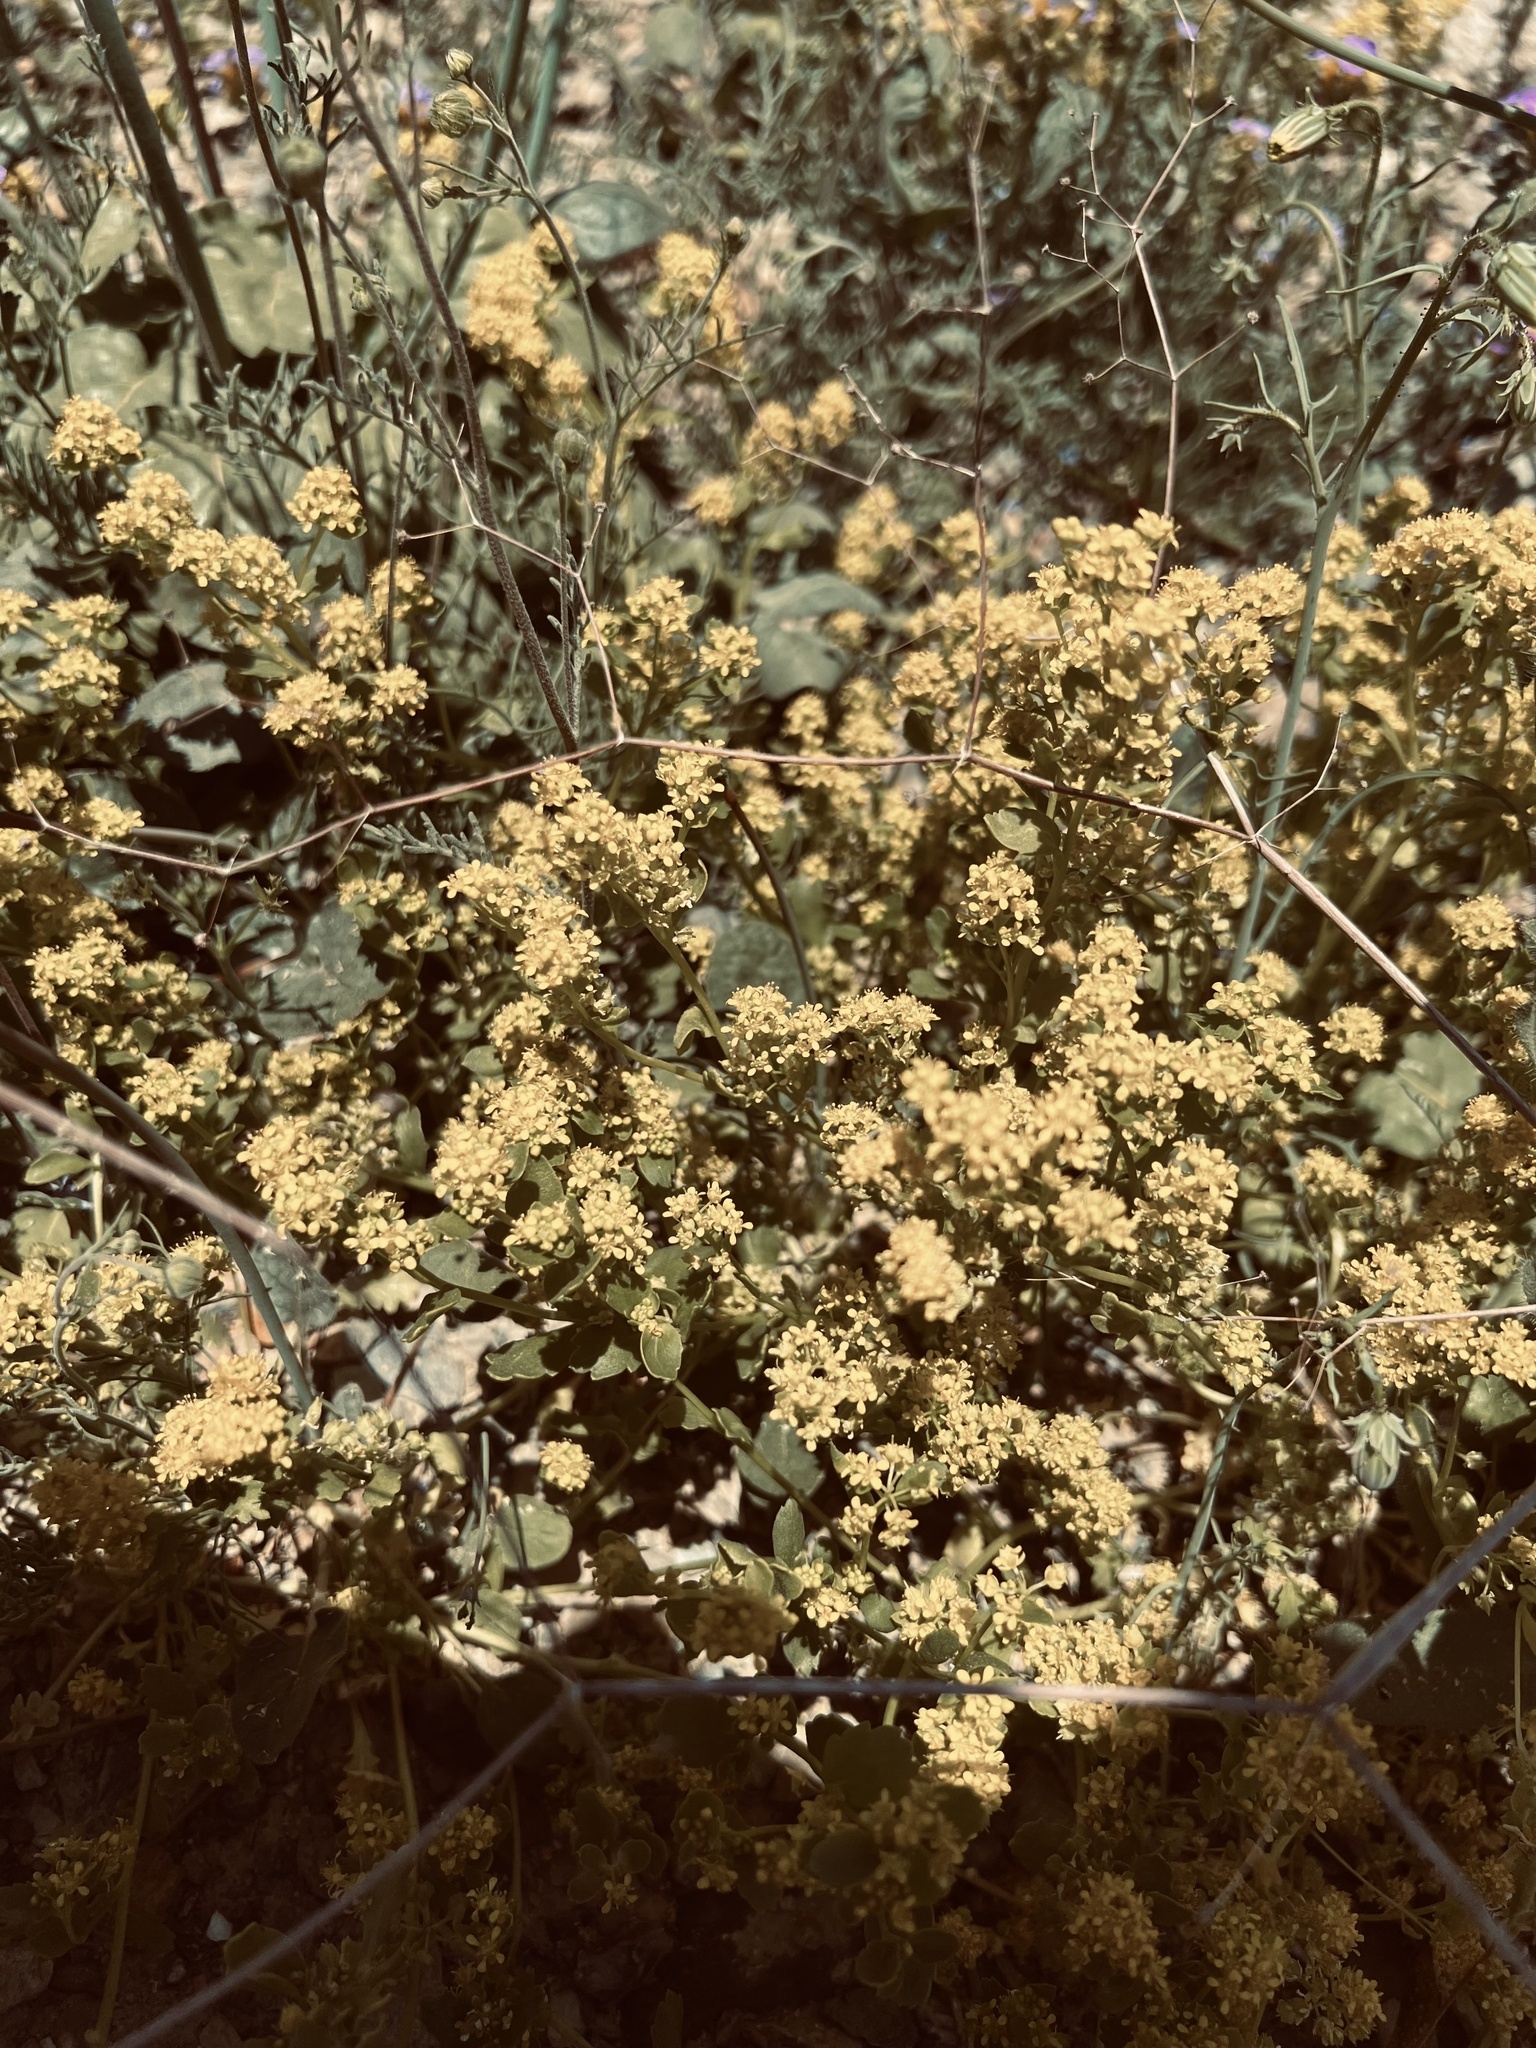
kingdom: Plantae
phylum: Tracheophyta
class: Magnoliopsida
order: Brassicales
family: Brassicaceae
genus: Lepidium
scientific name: Lepidium flavum
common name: Yellow pepperwort
